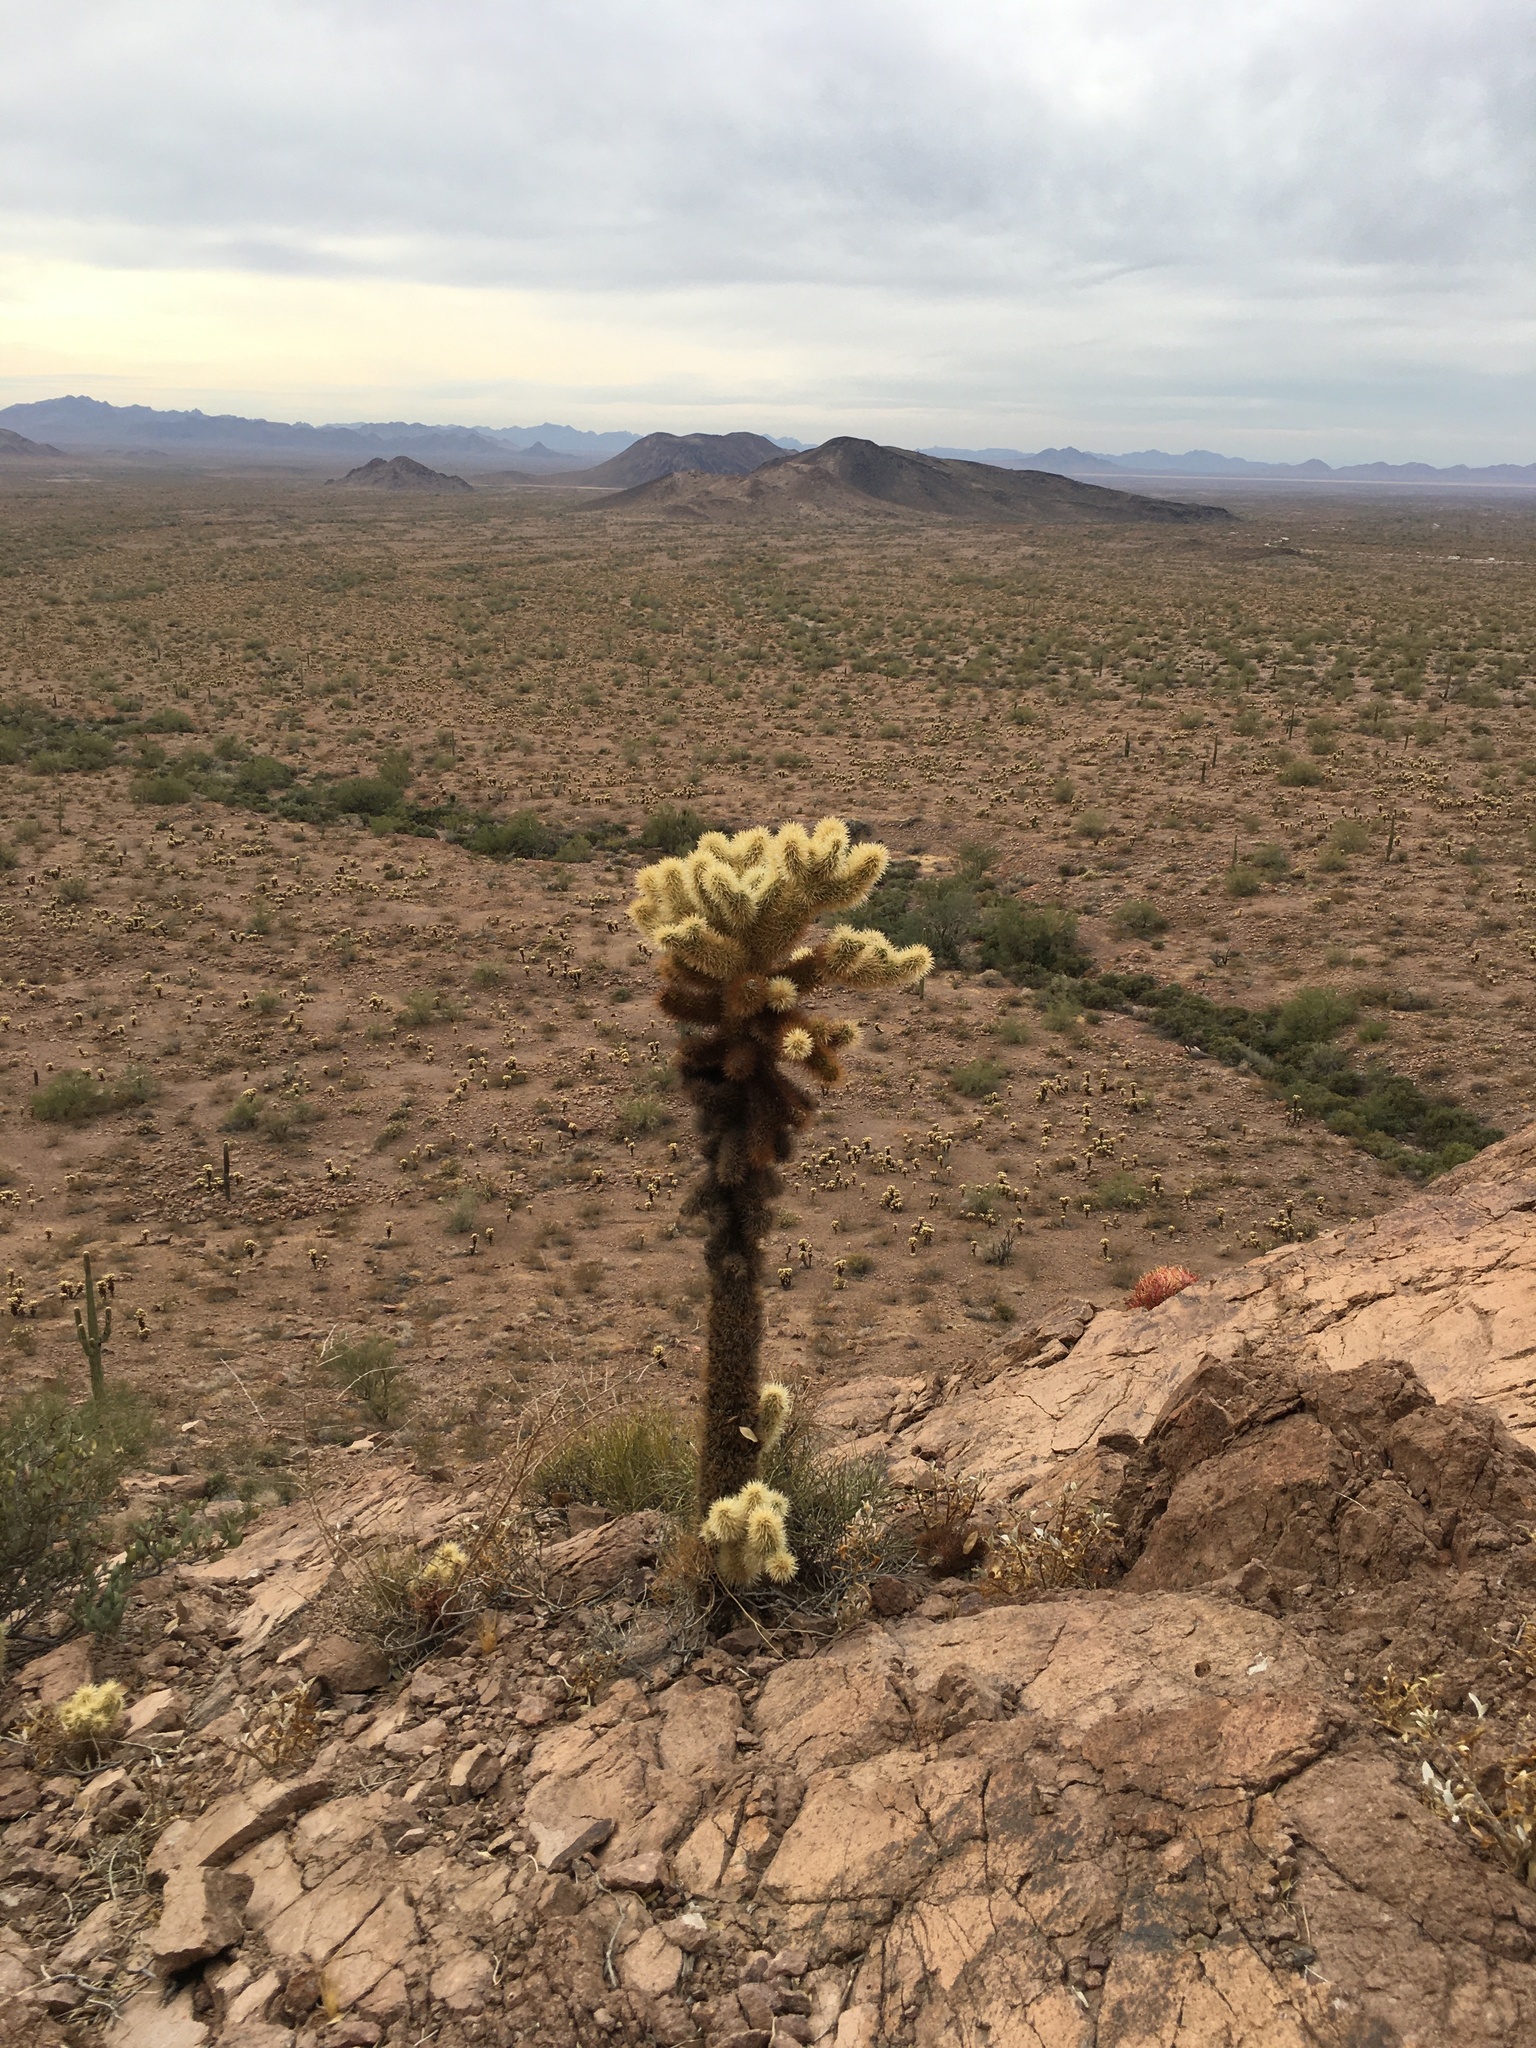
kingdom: Plantae
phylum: Tracheophyta
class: Magnoliopsida
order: Caryophyllales
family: Cactaceae
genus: Cylindropuntia
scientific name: Cylindropuntia fosbergii
